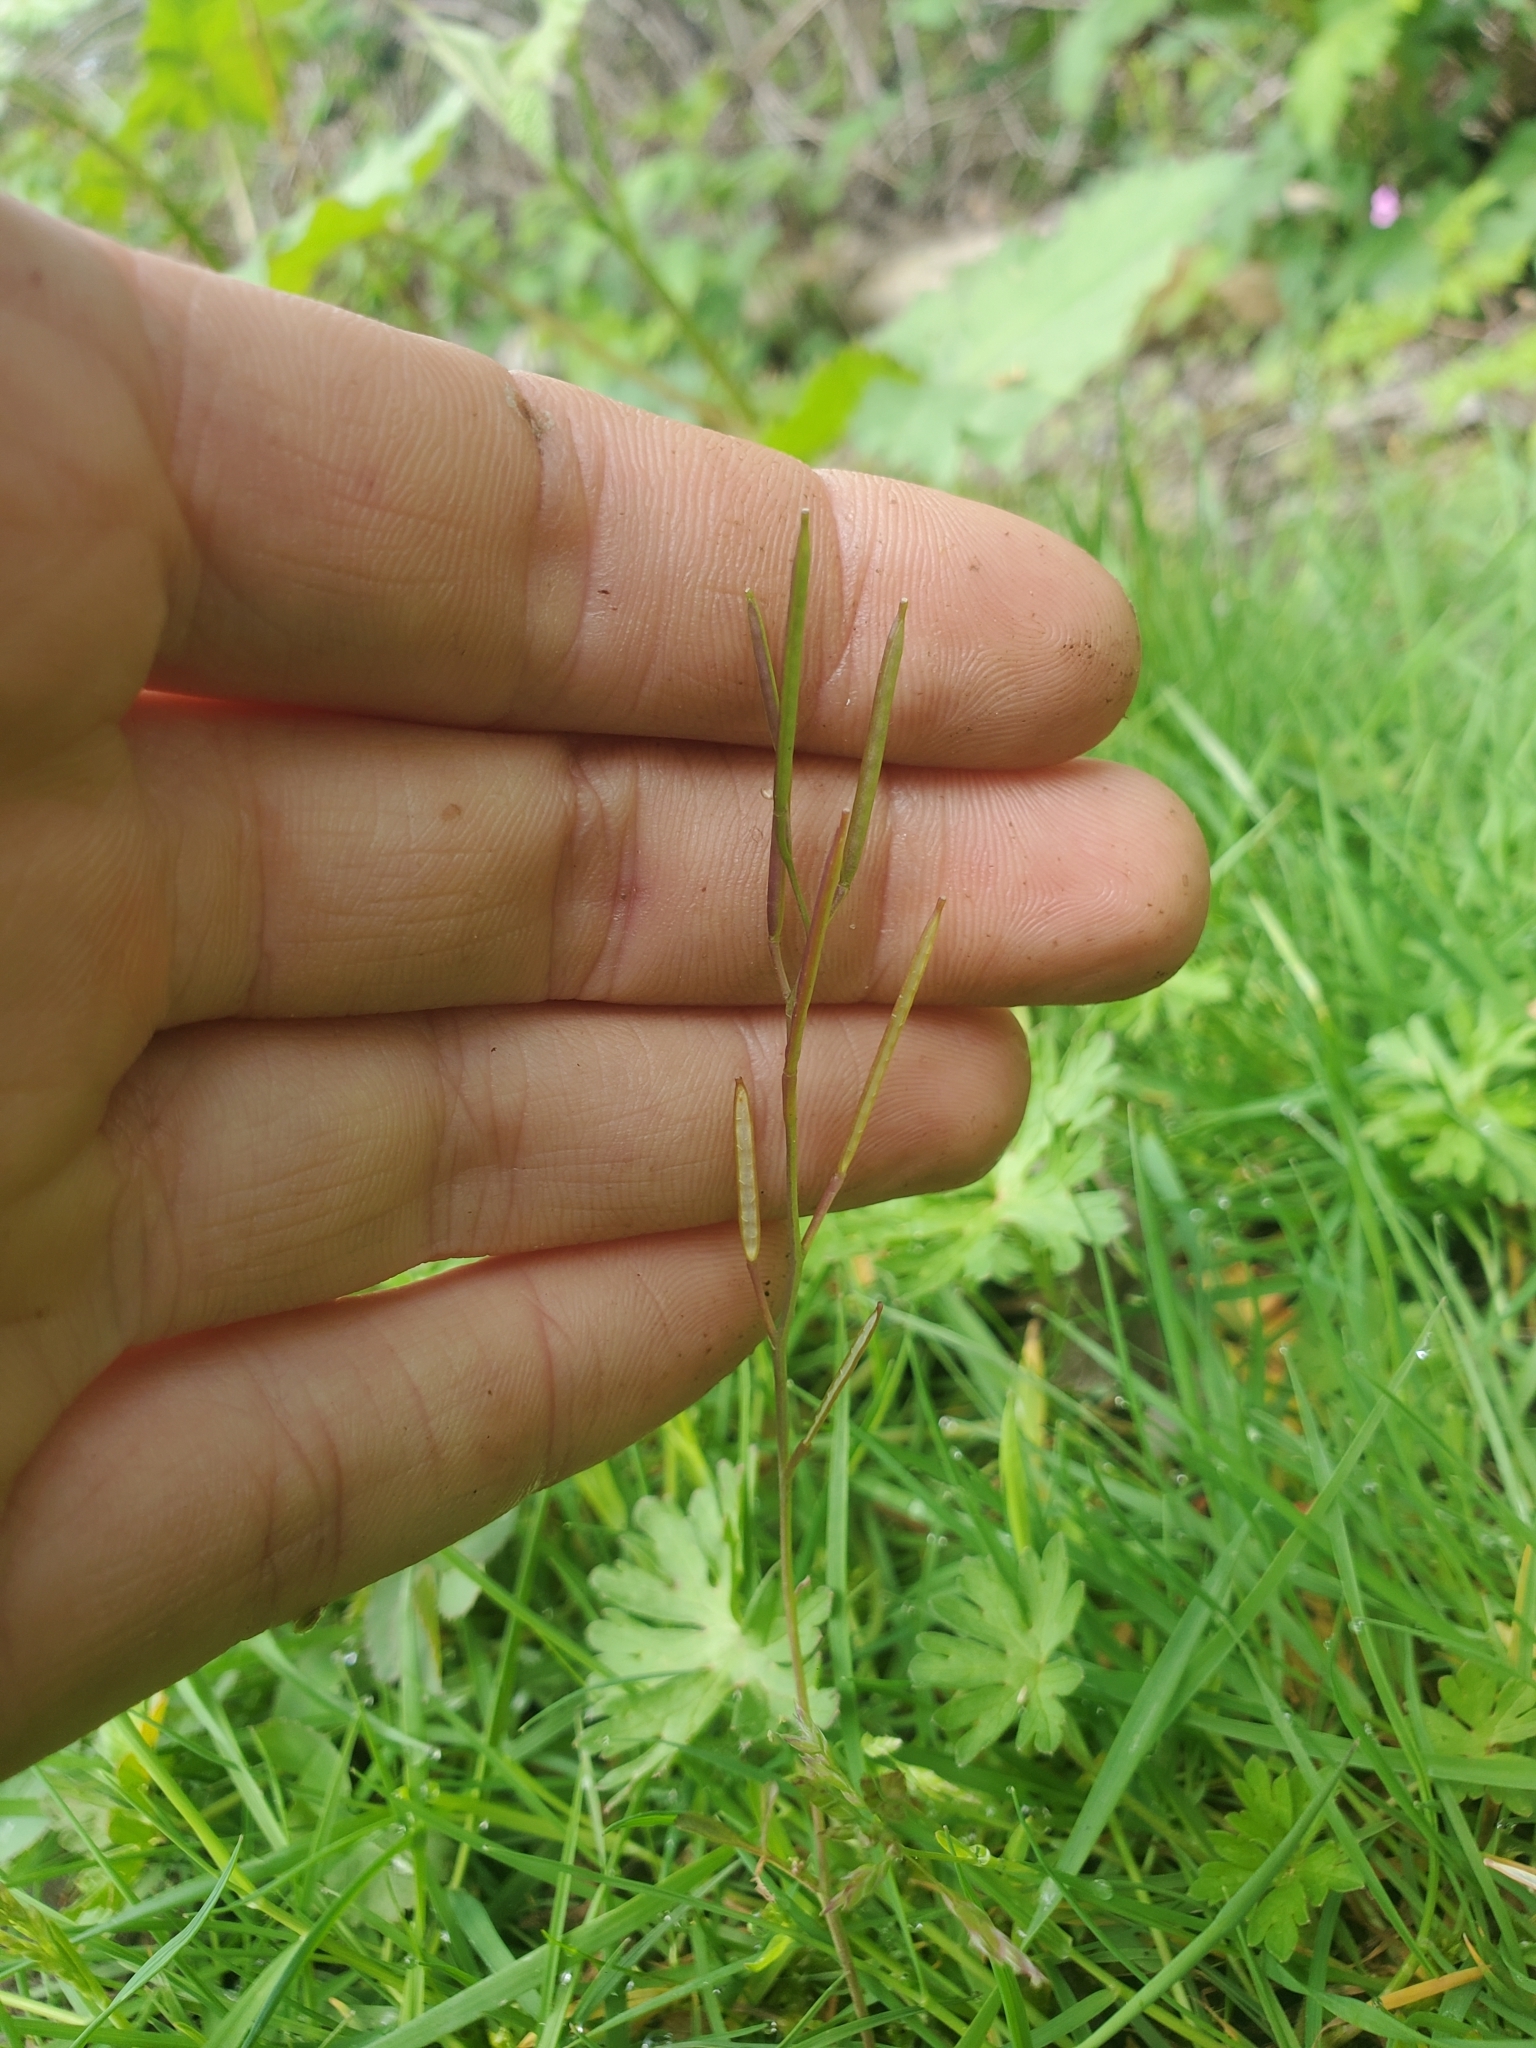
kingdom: Plantae
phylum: Tracheophyta
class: Magnoliopsida
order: Brassicales
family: Brassicaceae
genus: Cardamine
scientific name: Cardamine hirsuta
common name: Hairy bittercress
